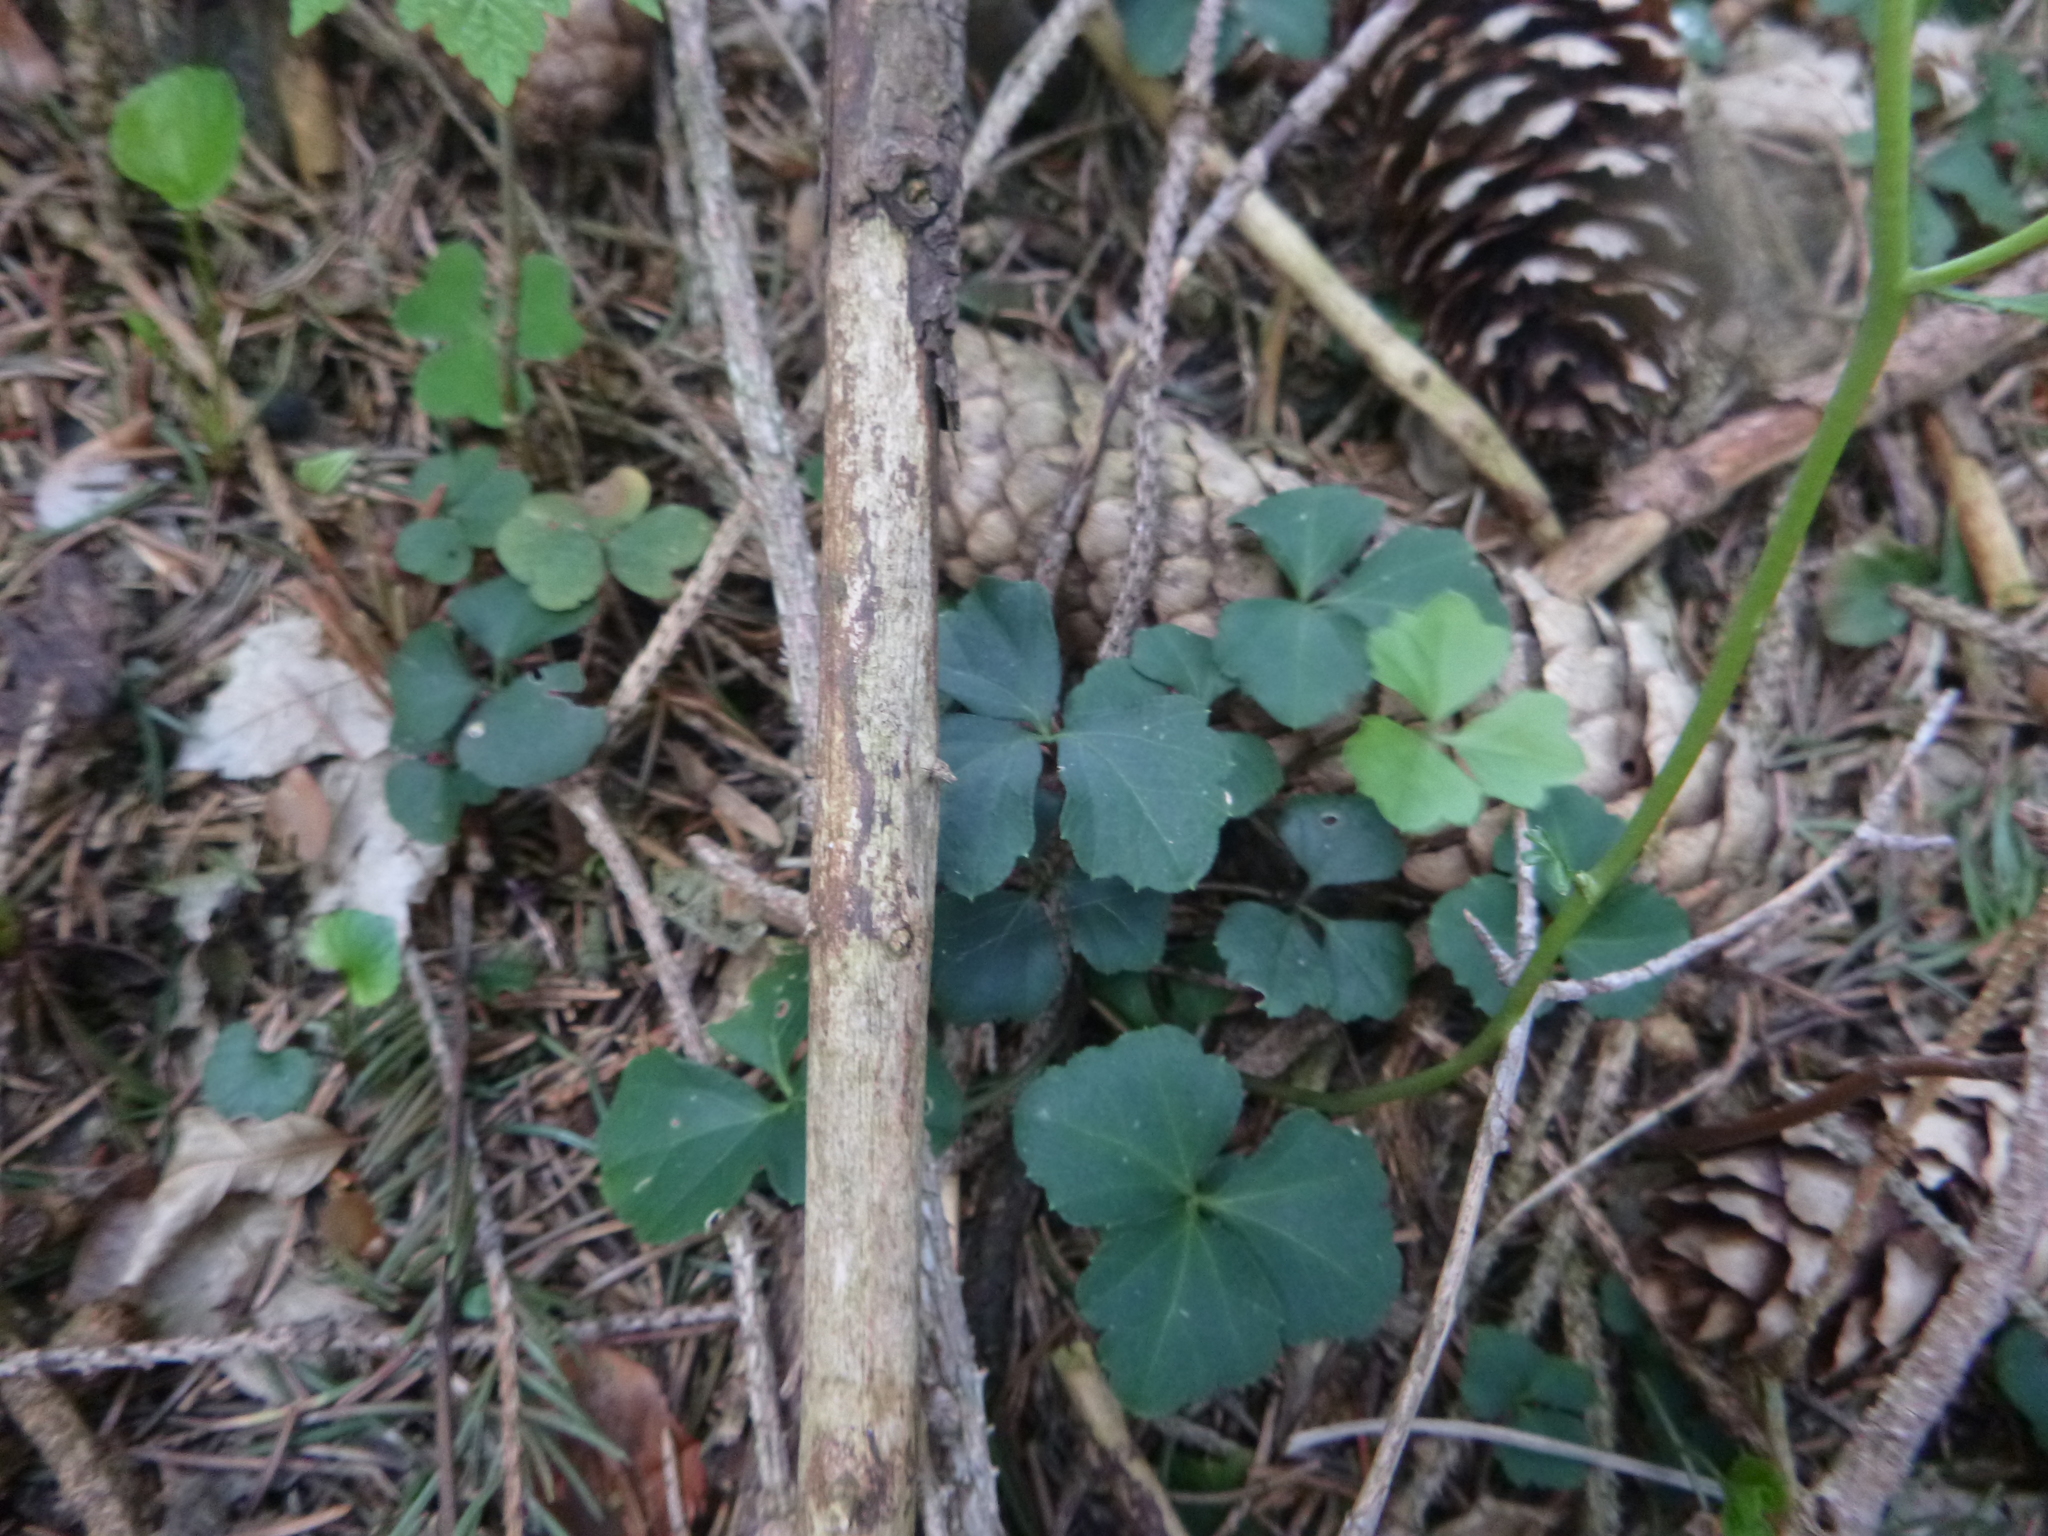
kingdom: Plantae
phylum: Tracheophyta
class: Magnoliopsida
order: Brassicales
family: Brassicaceae
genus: Cardamine
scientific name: Cardamine trifolia
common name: Trefoil cress
